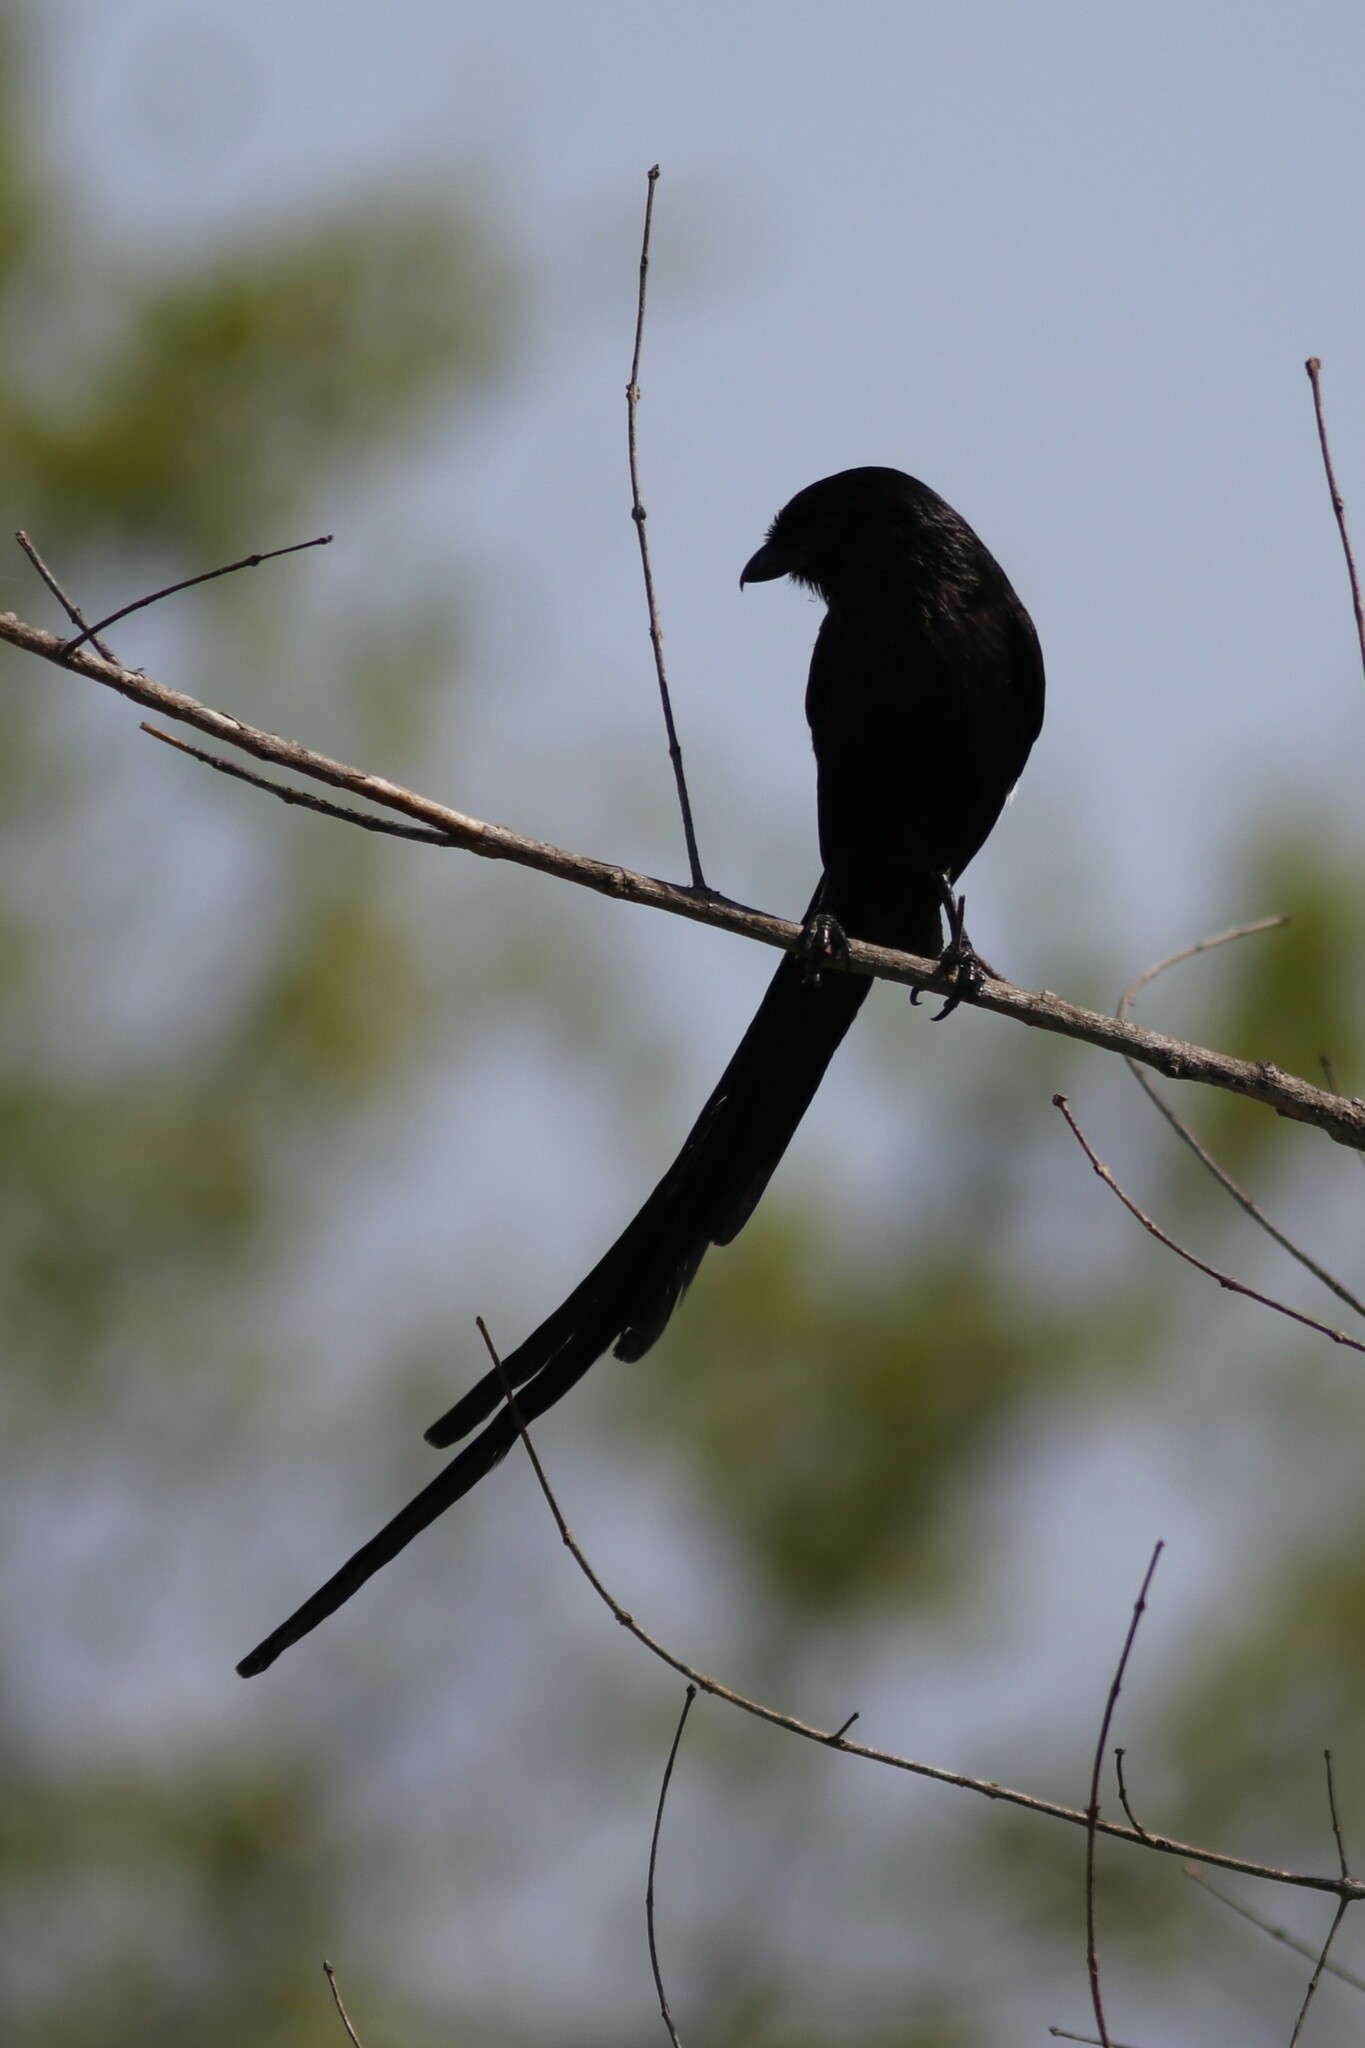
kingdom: Animalia
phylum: Chordata
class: Aves
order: Passeriformes
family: Laniidae
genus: Urolestes
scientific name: Urolestes melanoleucus
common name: Magpie shrike
